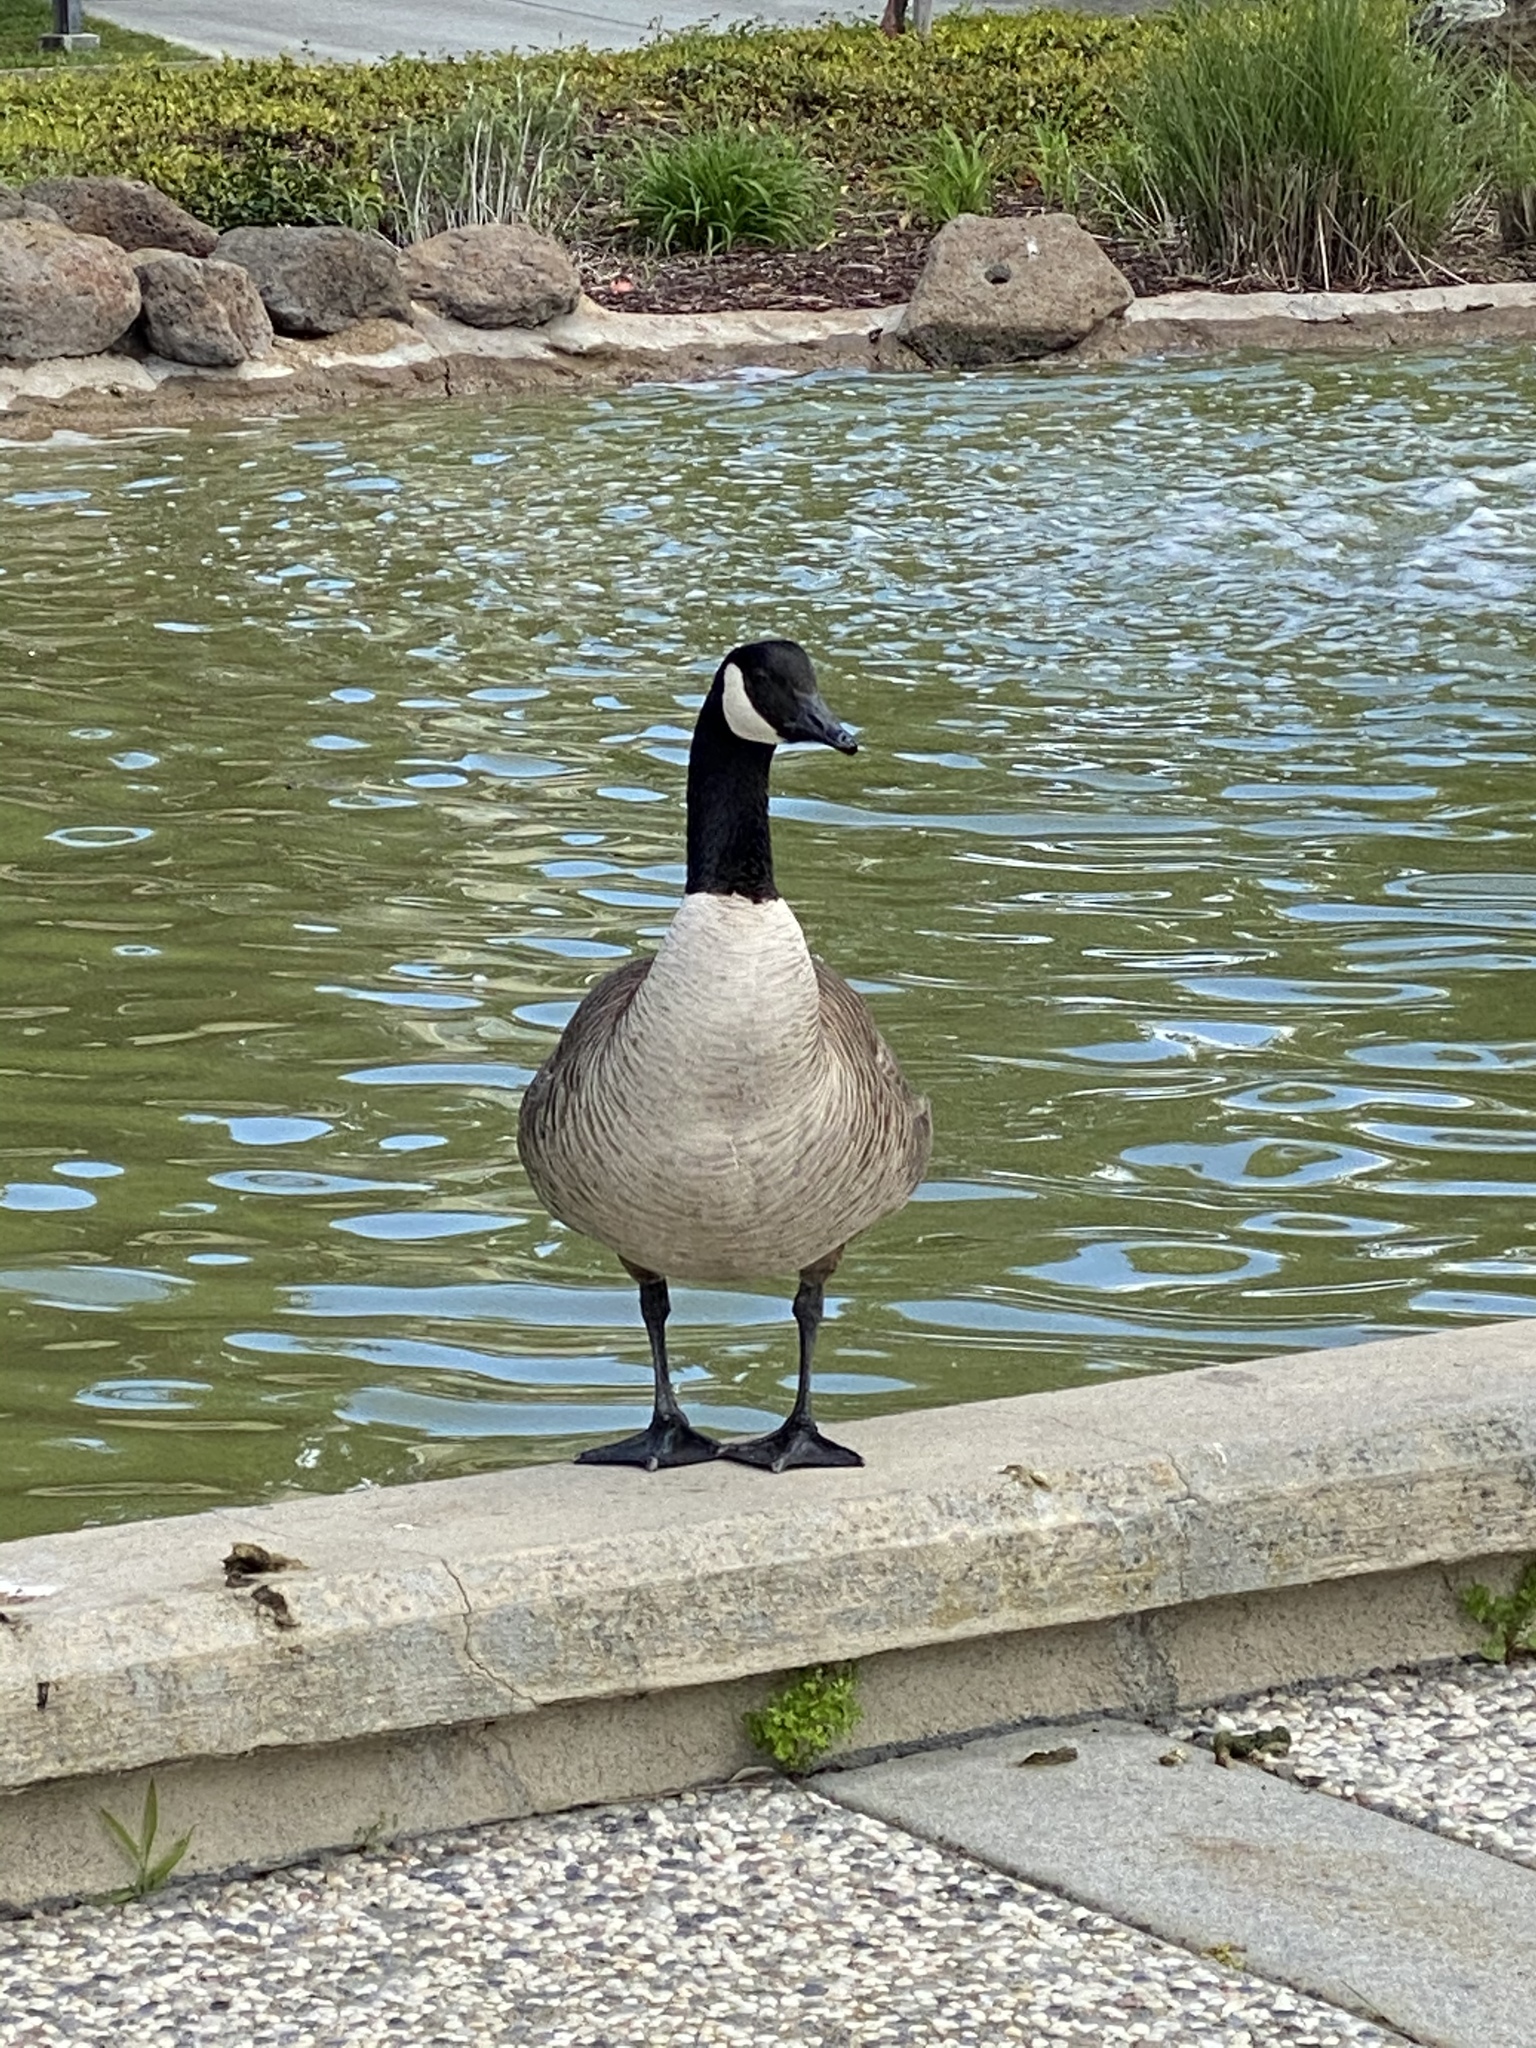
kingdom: Animalia
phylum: Chordata
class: Aves
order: Anseriformes
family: Anatidae
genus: Branta
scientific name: Branta canadensis
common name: Canada goose
